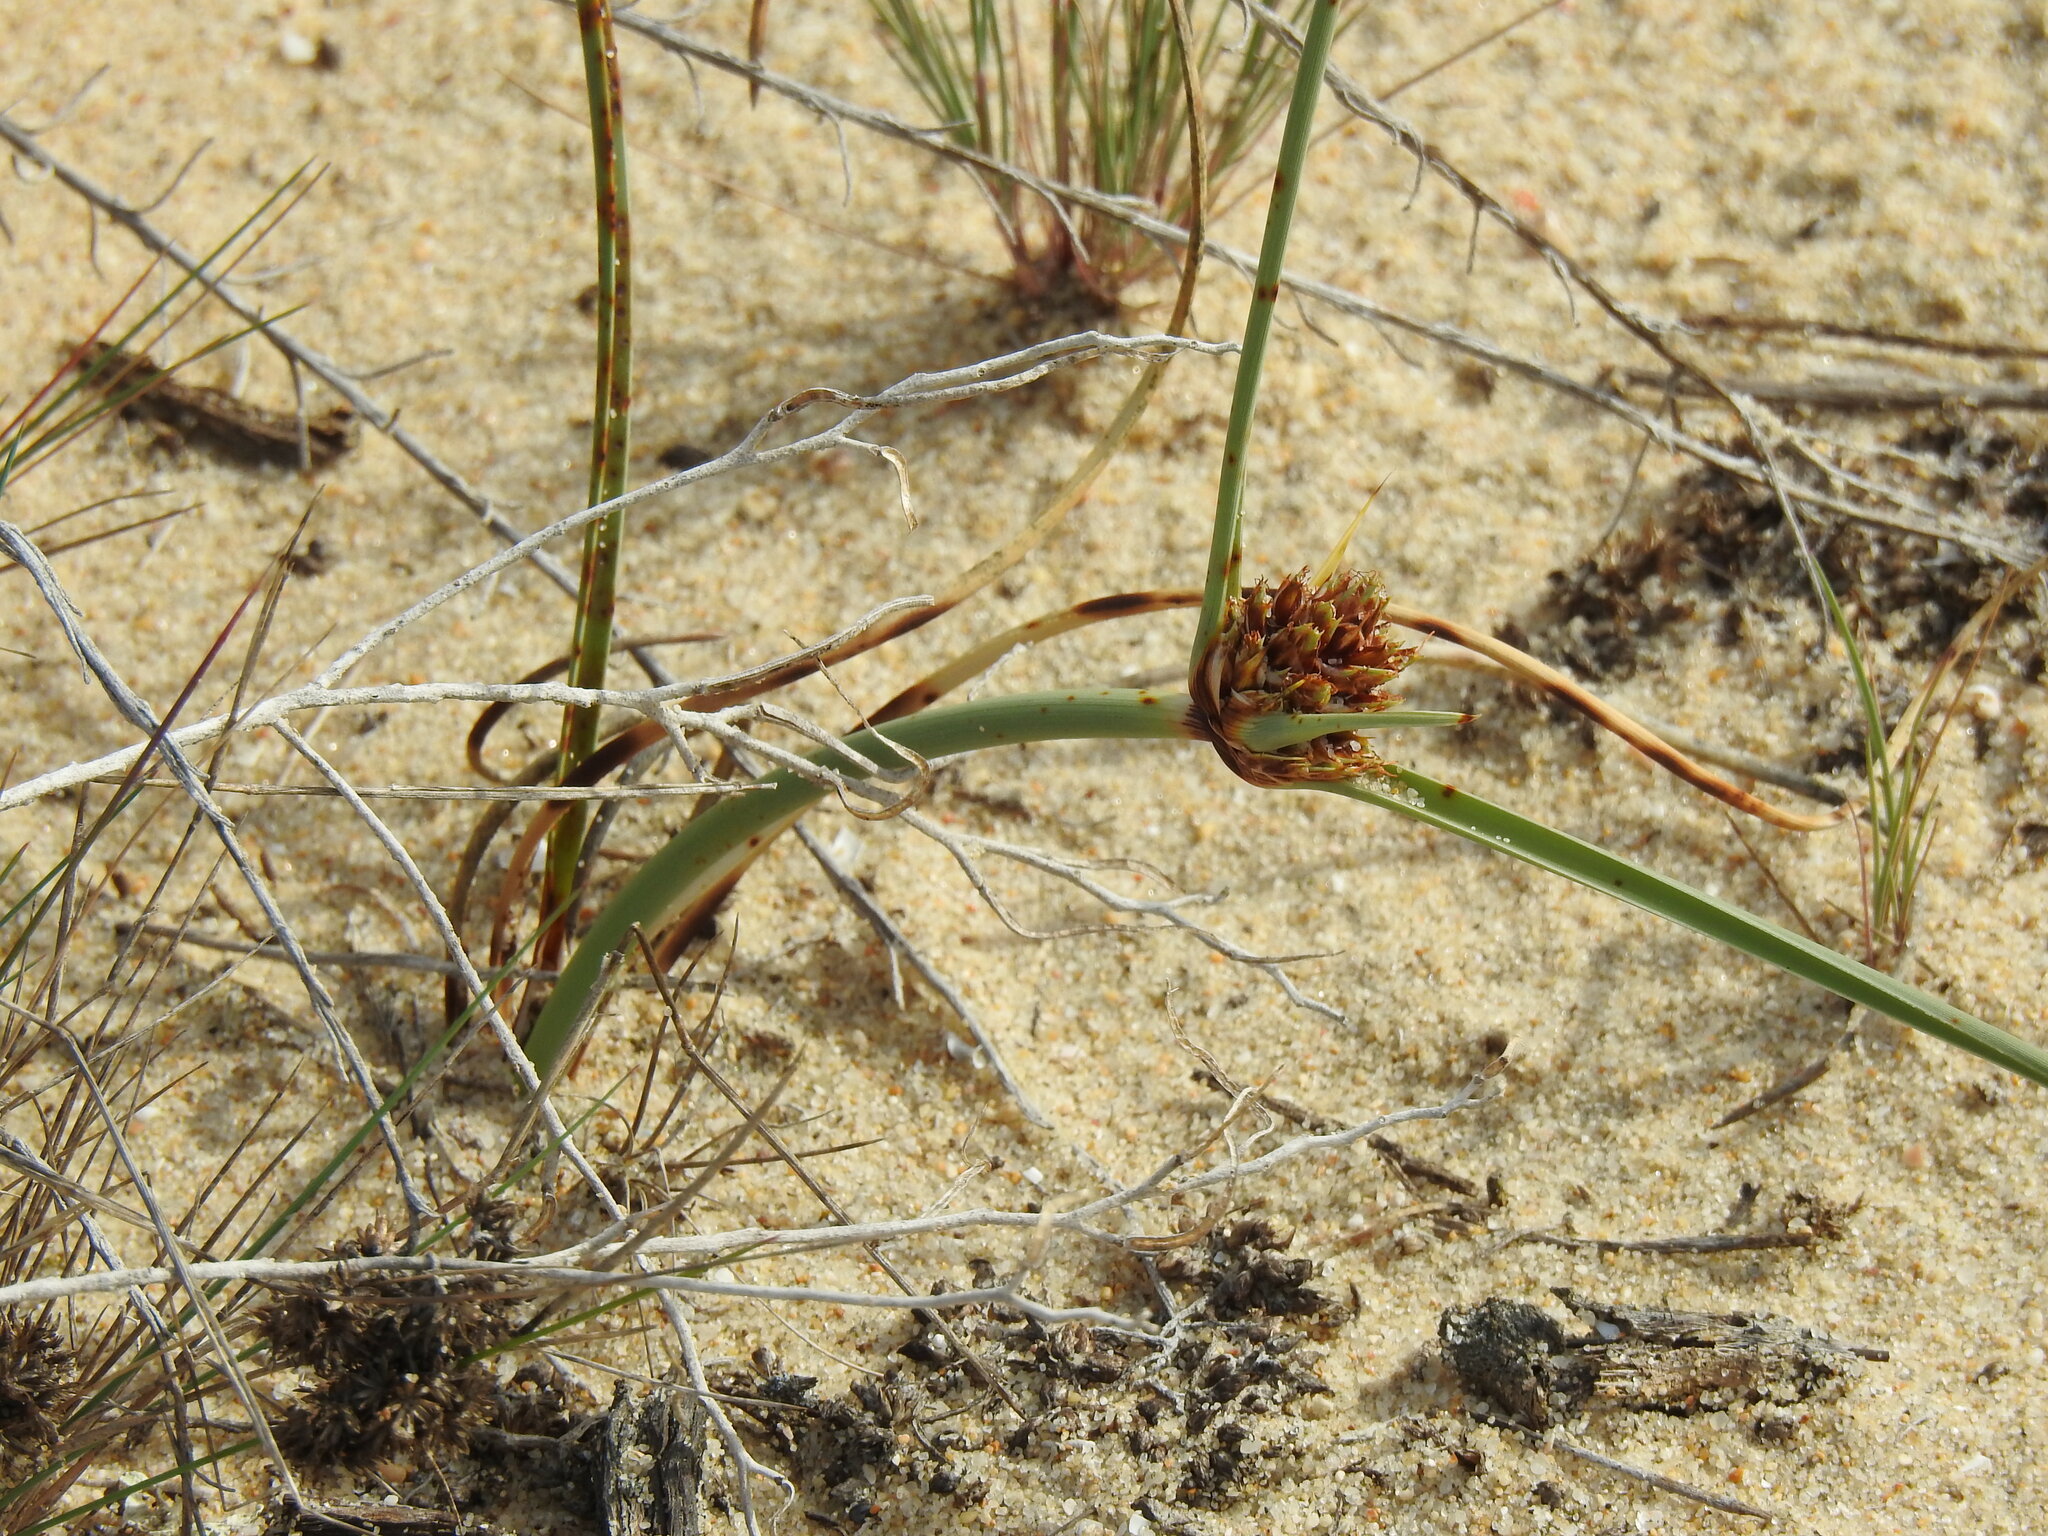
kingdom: Plantae
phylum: Tracheophyta
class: Liliopsida
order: Poales
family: Cyperaceae
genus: Cyperus
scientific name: Cyperus capitatus
